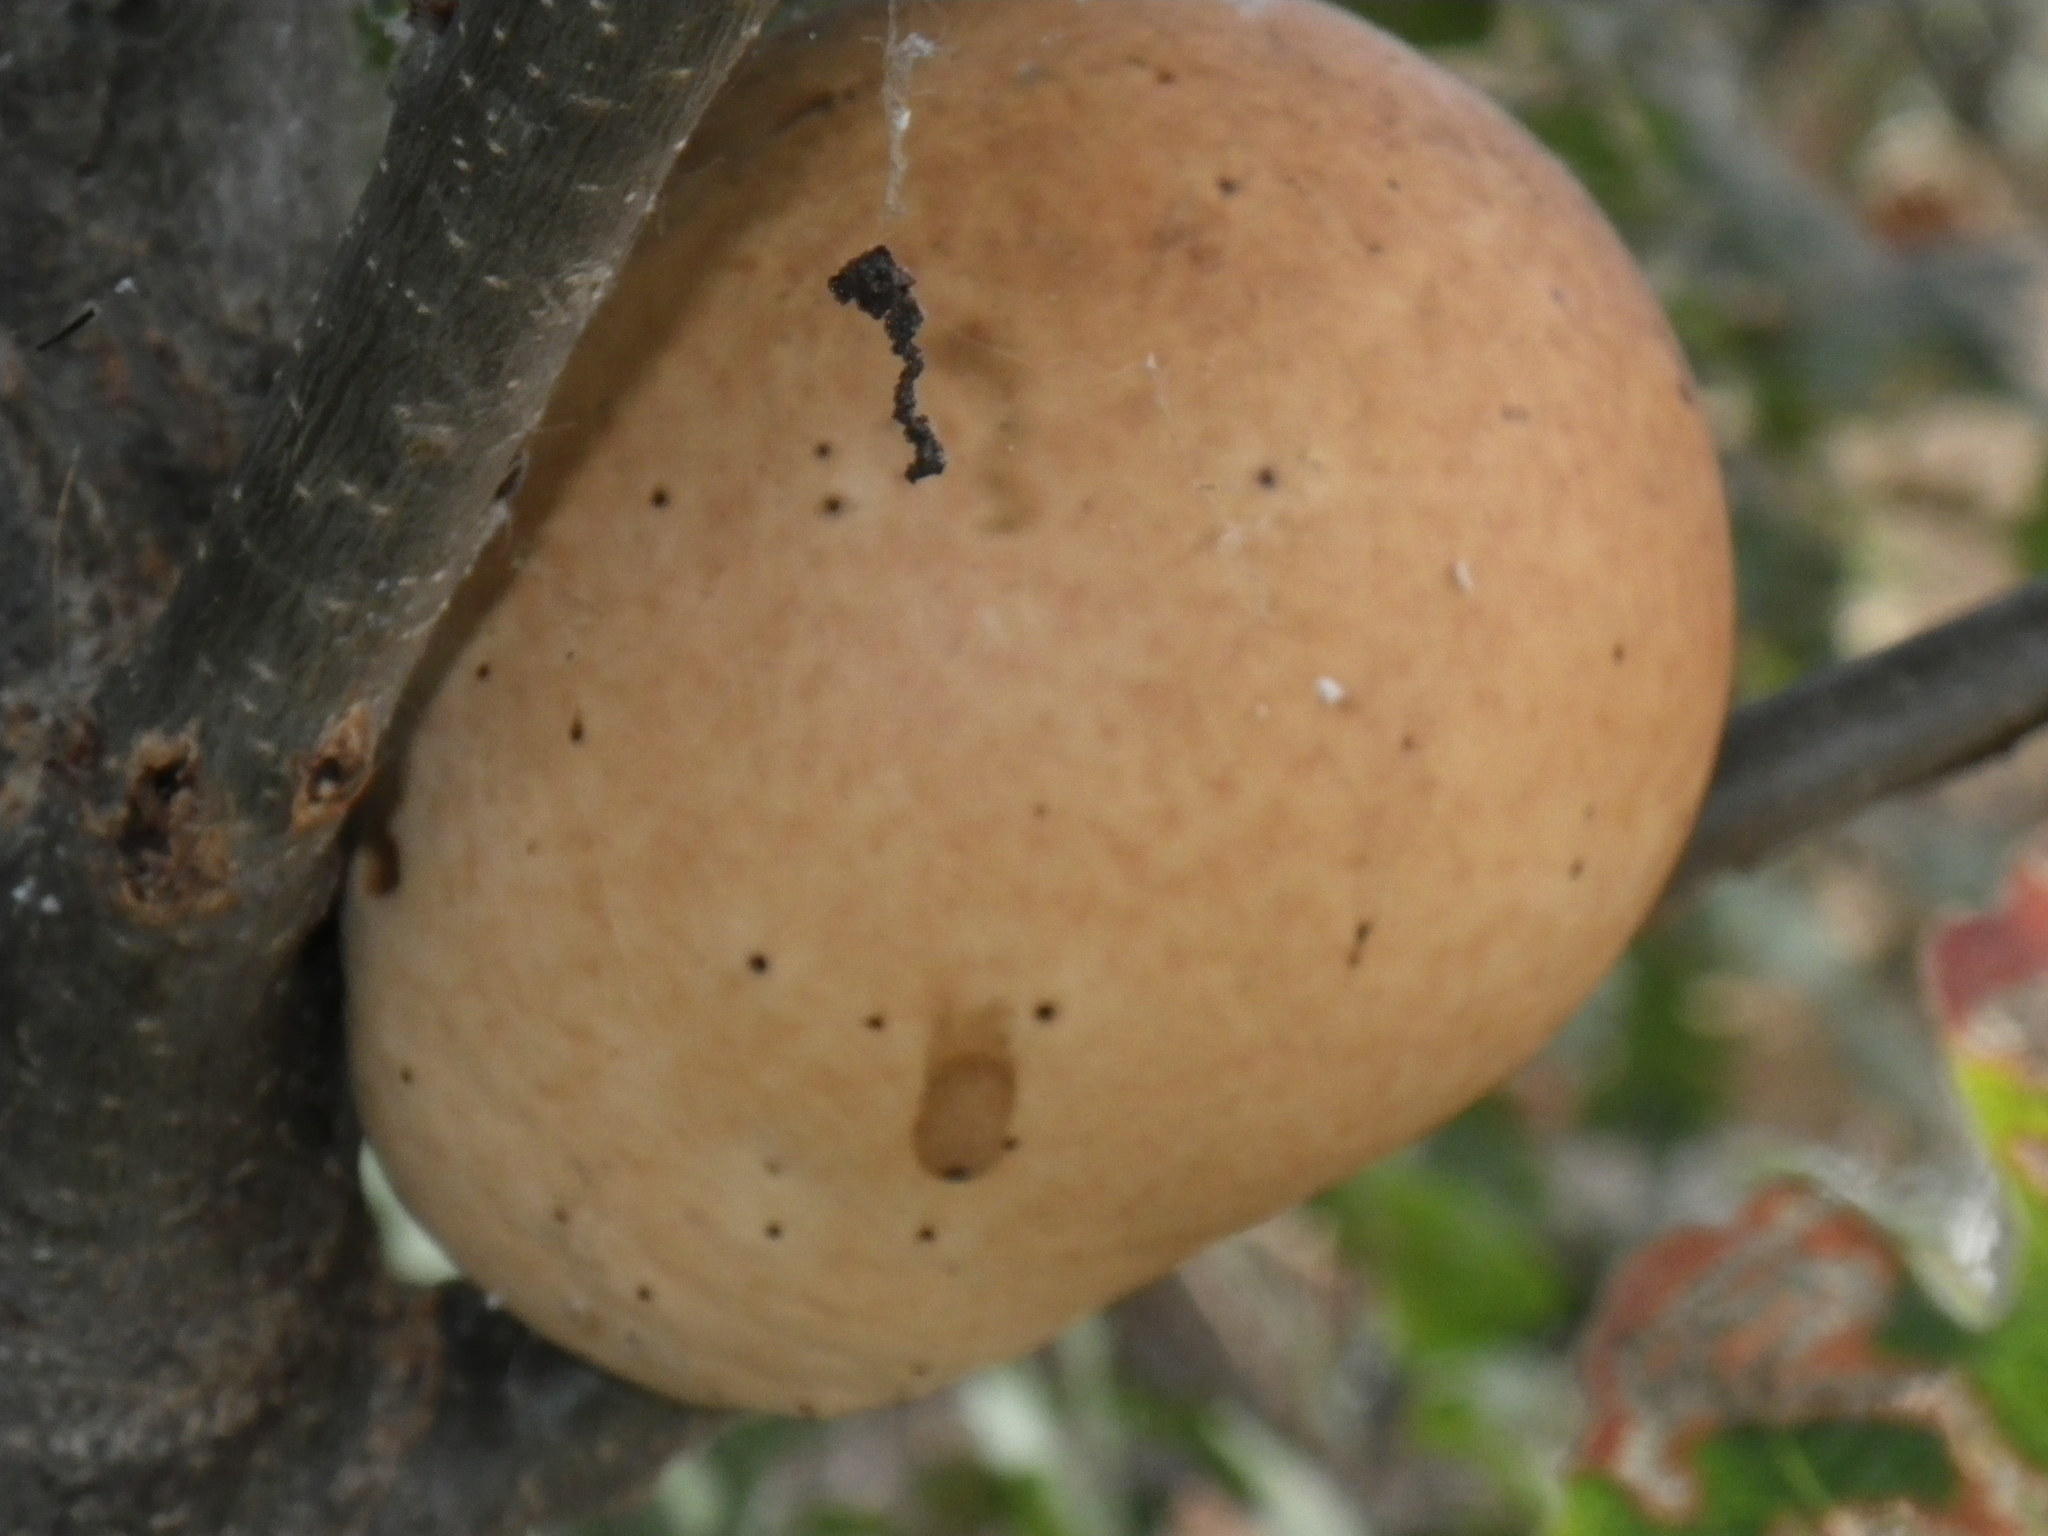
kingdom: Animalia
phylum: Arthropoda
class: Insecta
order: Hymenoptera
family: Cynipidae
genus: Andricus
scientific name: Andricus quercuscalifornicus
